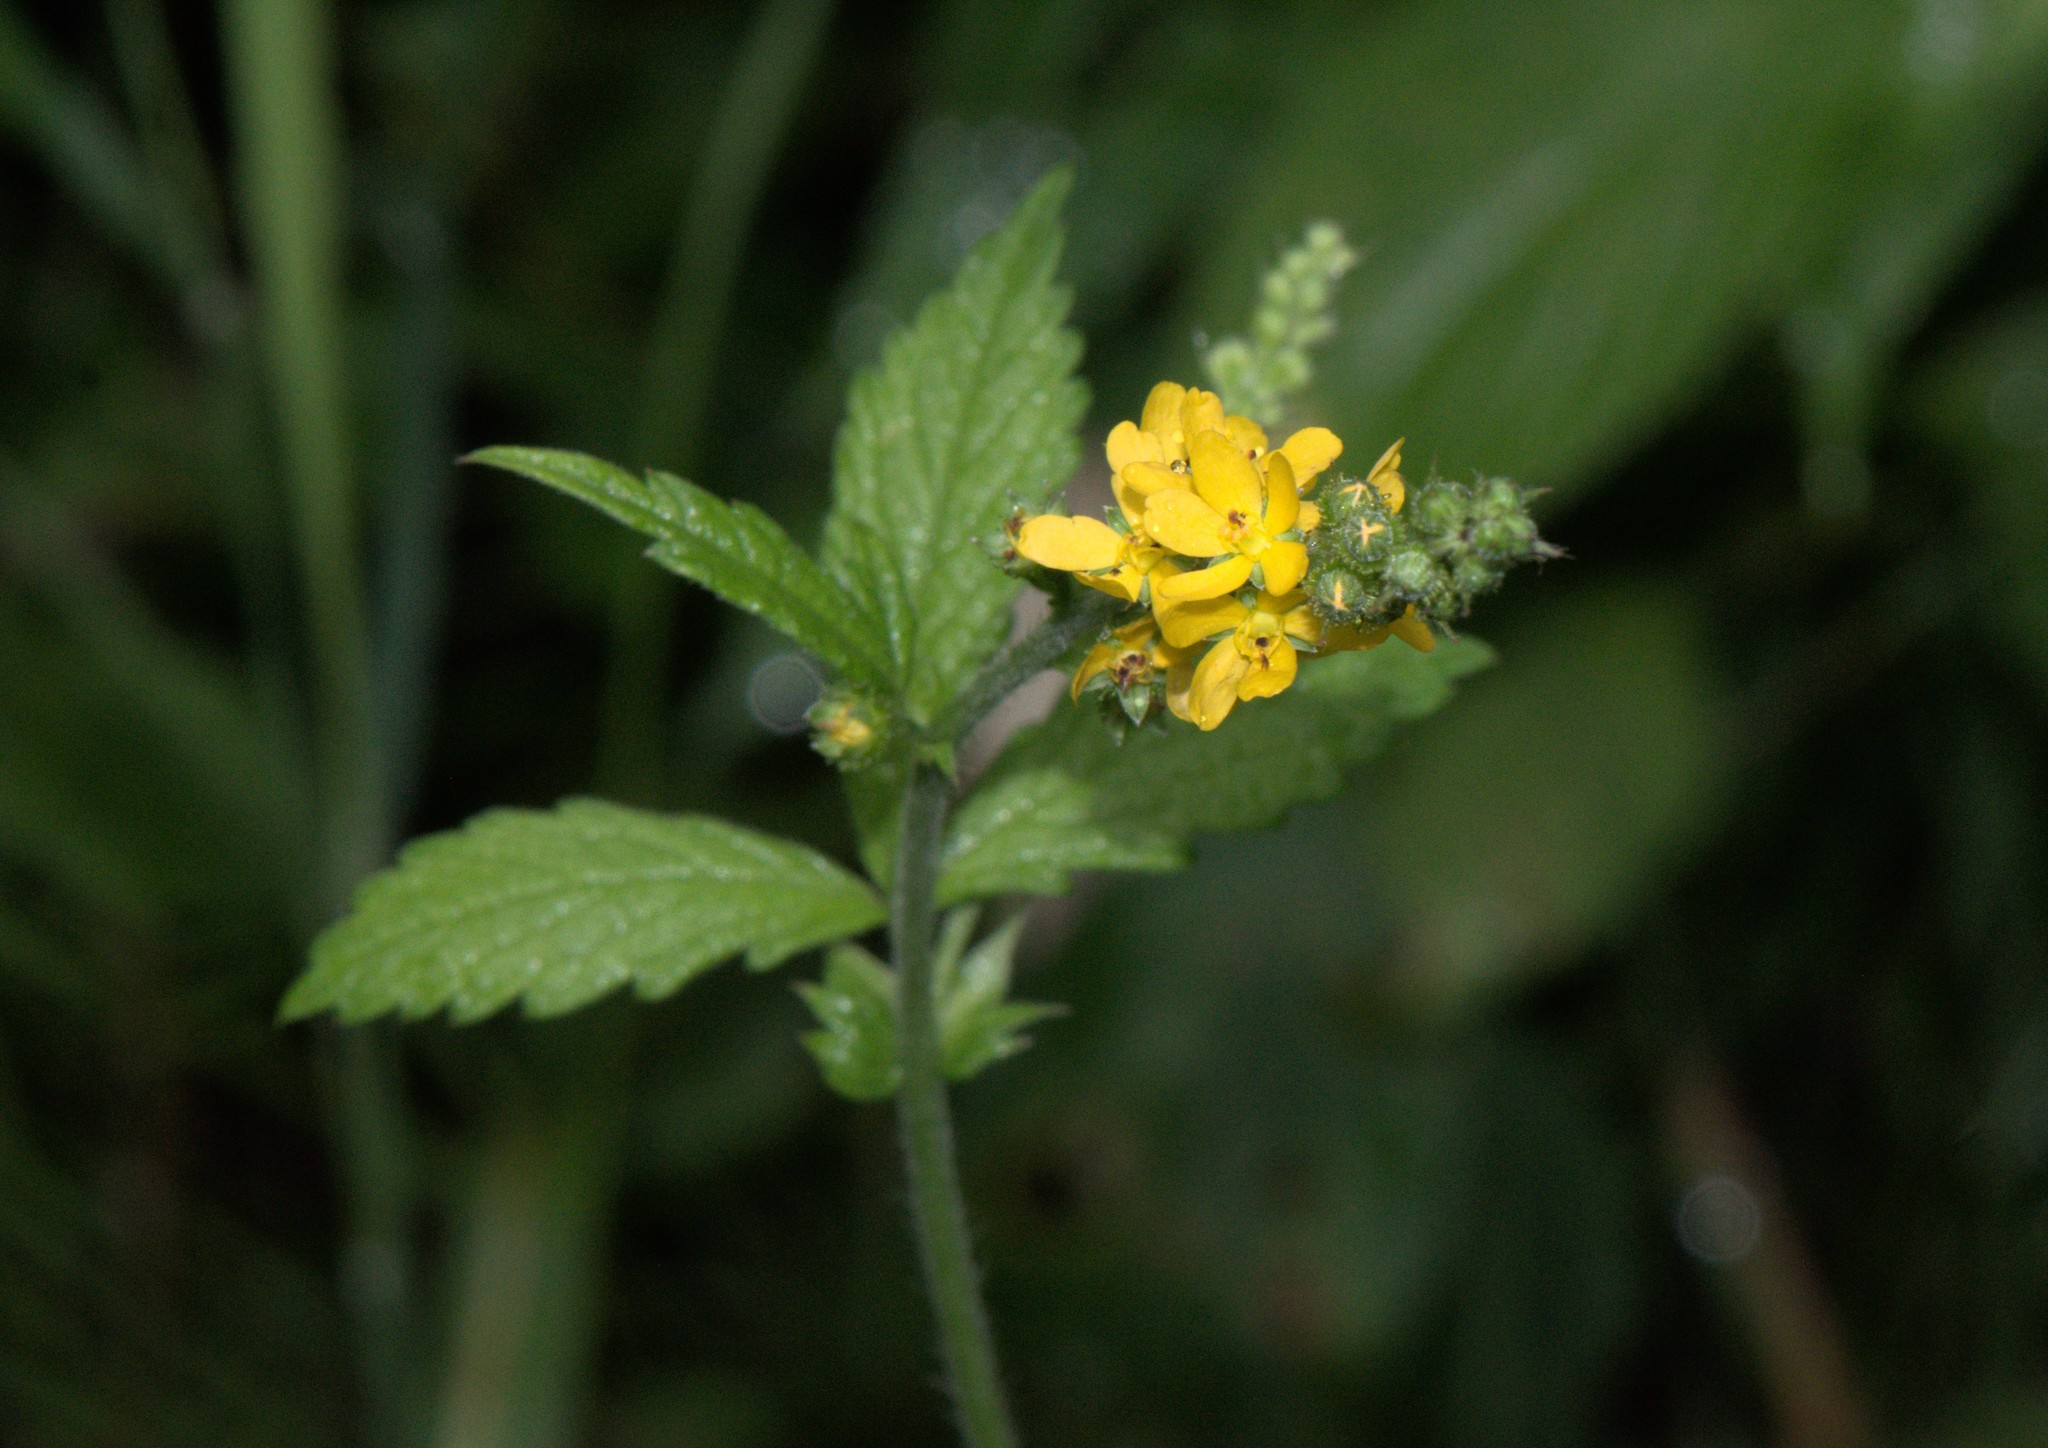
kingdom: Plantae
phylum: Tracheophyta
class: Magnoliopsida
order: Rosales
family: Rosaceae
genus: Agrimonia
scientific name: Agrimonia pilosa
